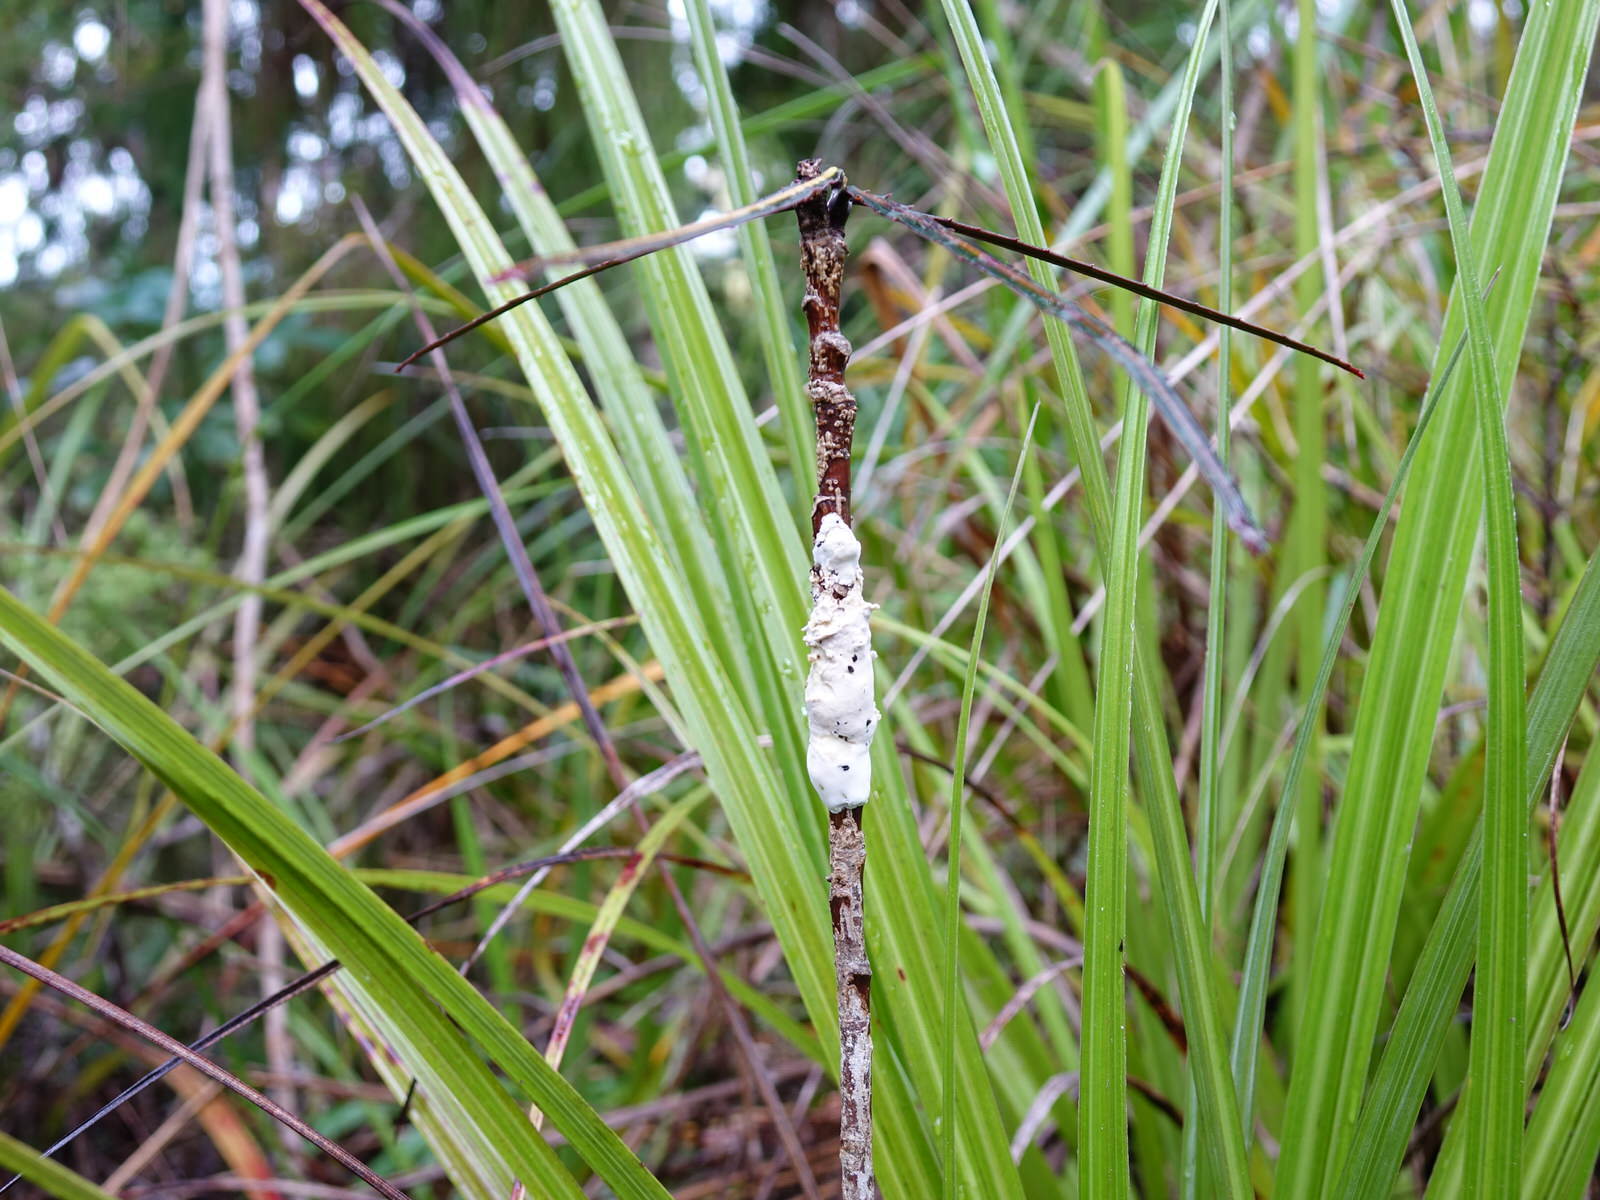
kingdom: Fungi
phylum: Basidiomycota
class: Pucciniomycetes
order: Septobasidiales
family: Septobasidiaceae
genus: Septobasidium
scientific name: Septobasidium simmondsii
